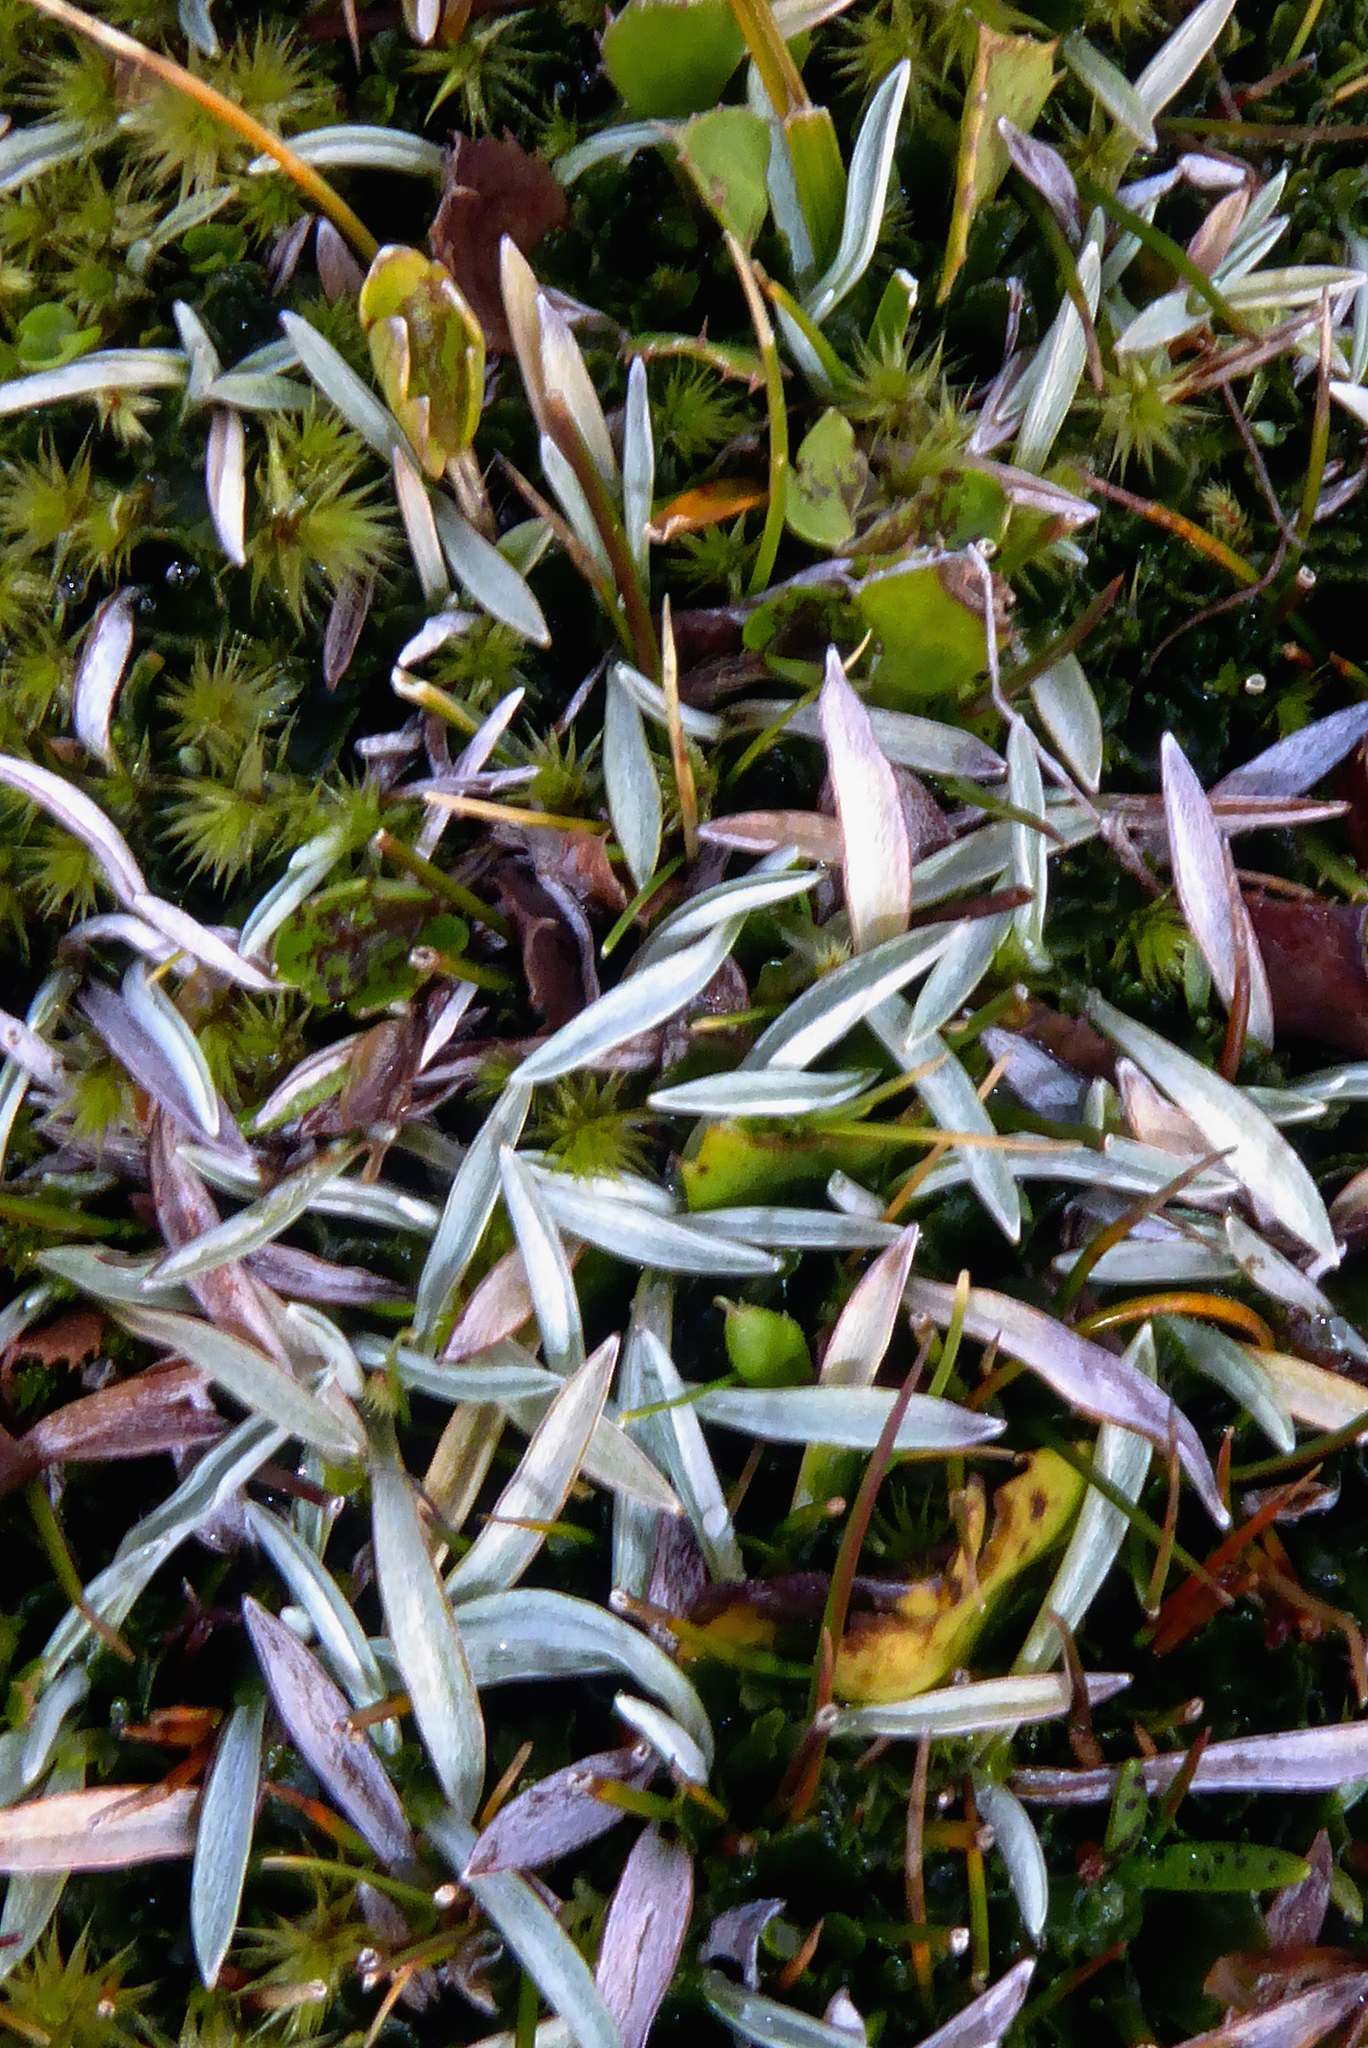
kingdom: Plantae
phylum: Tracheophyta
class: Magnoliopsida
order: Asterales
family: Asteraceae
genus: Euchiton
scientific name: Euchiton paludosus
